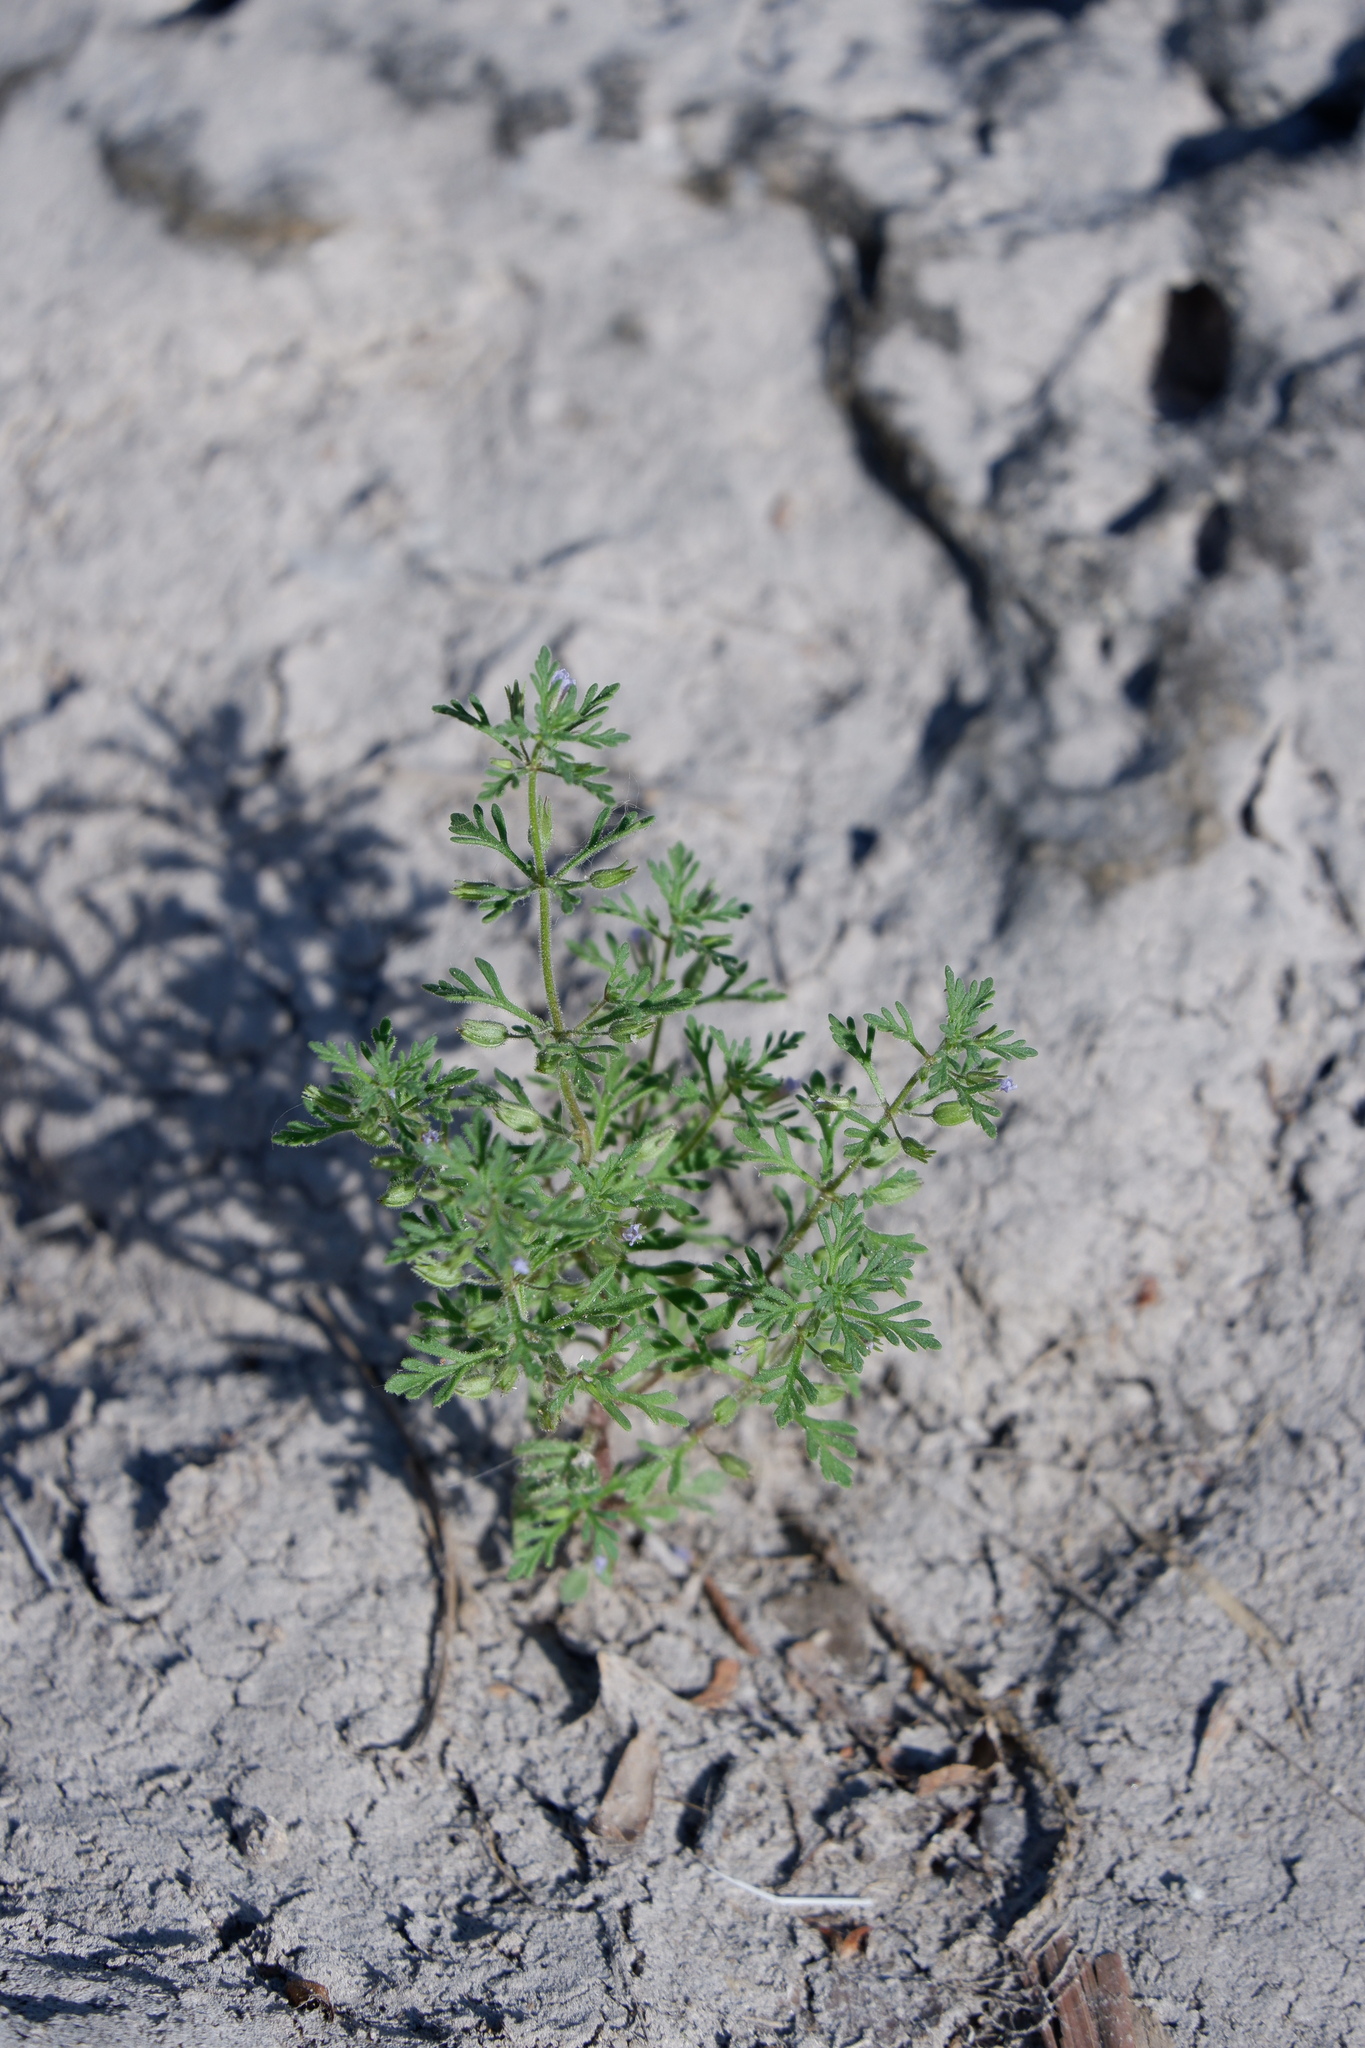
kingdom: Plantae
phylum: Tracheophyta
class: Magnoliopsida
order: Lamiales
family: Plantaginaceae
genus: Leucospora
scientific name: Leucospora multifida
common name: Narrow-leaf paleseed
